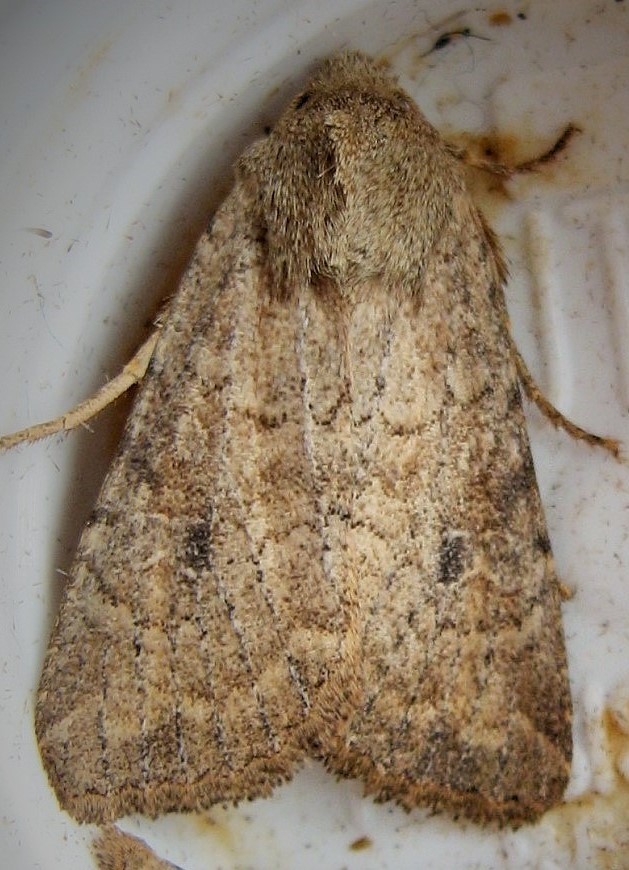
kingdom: Animalia
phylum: Arthropoda
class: Insecta
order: Lepidoptera
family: Noctuidae
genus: Apamea
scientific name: Apamea lutosa
